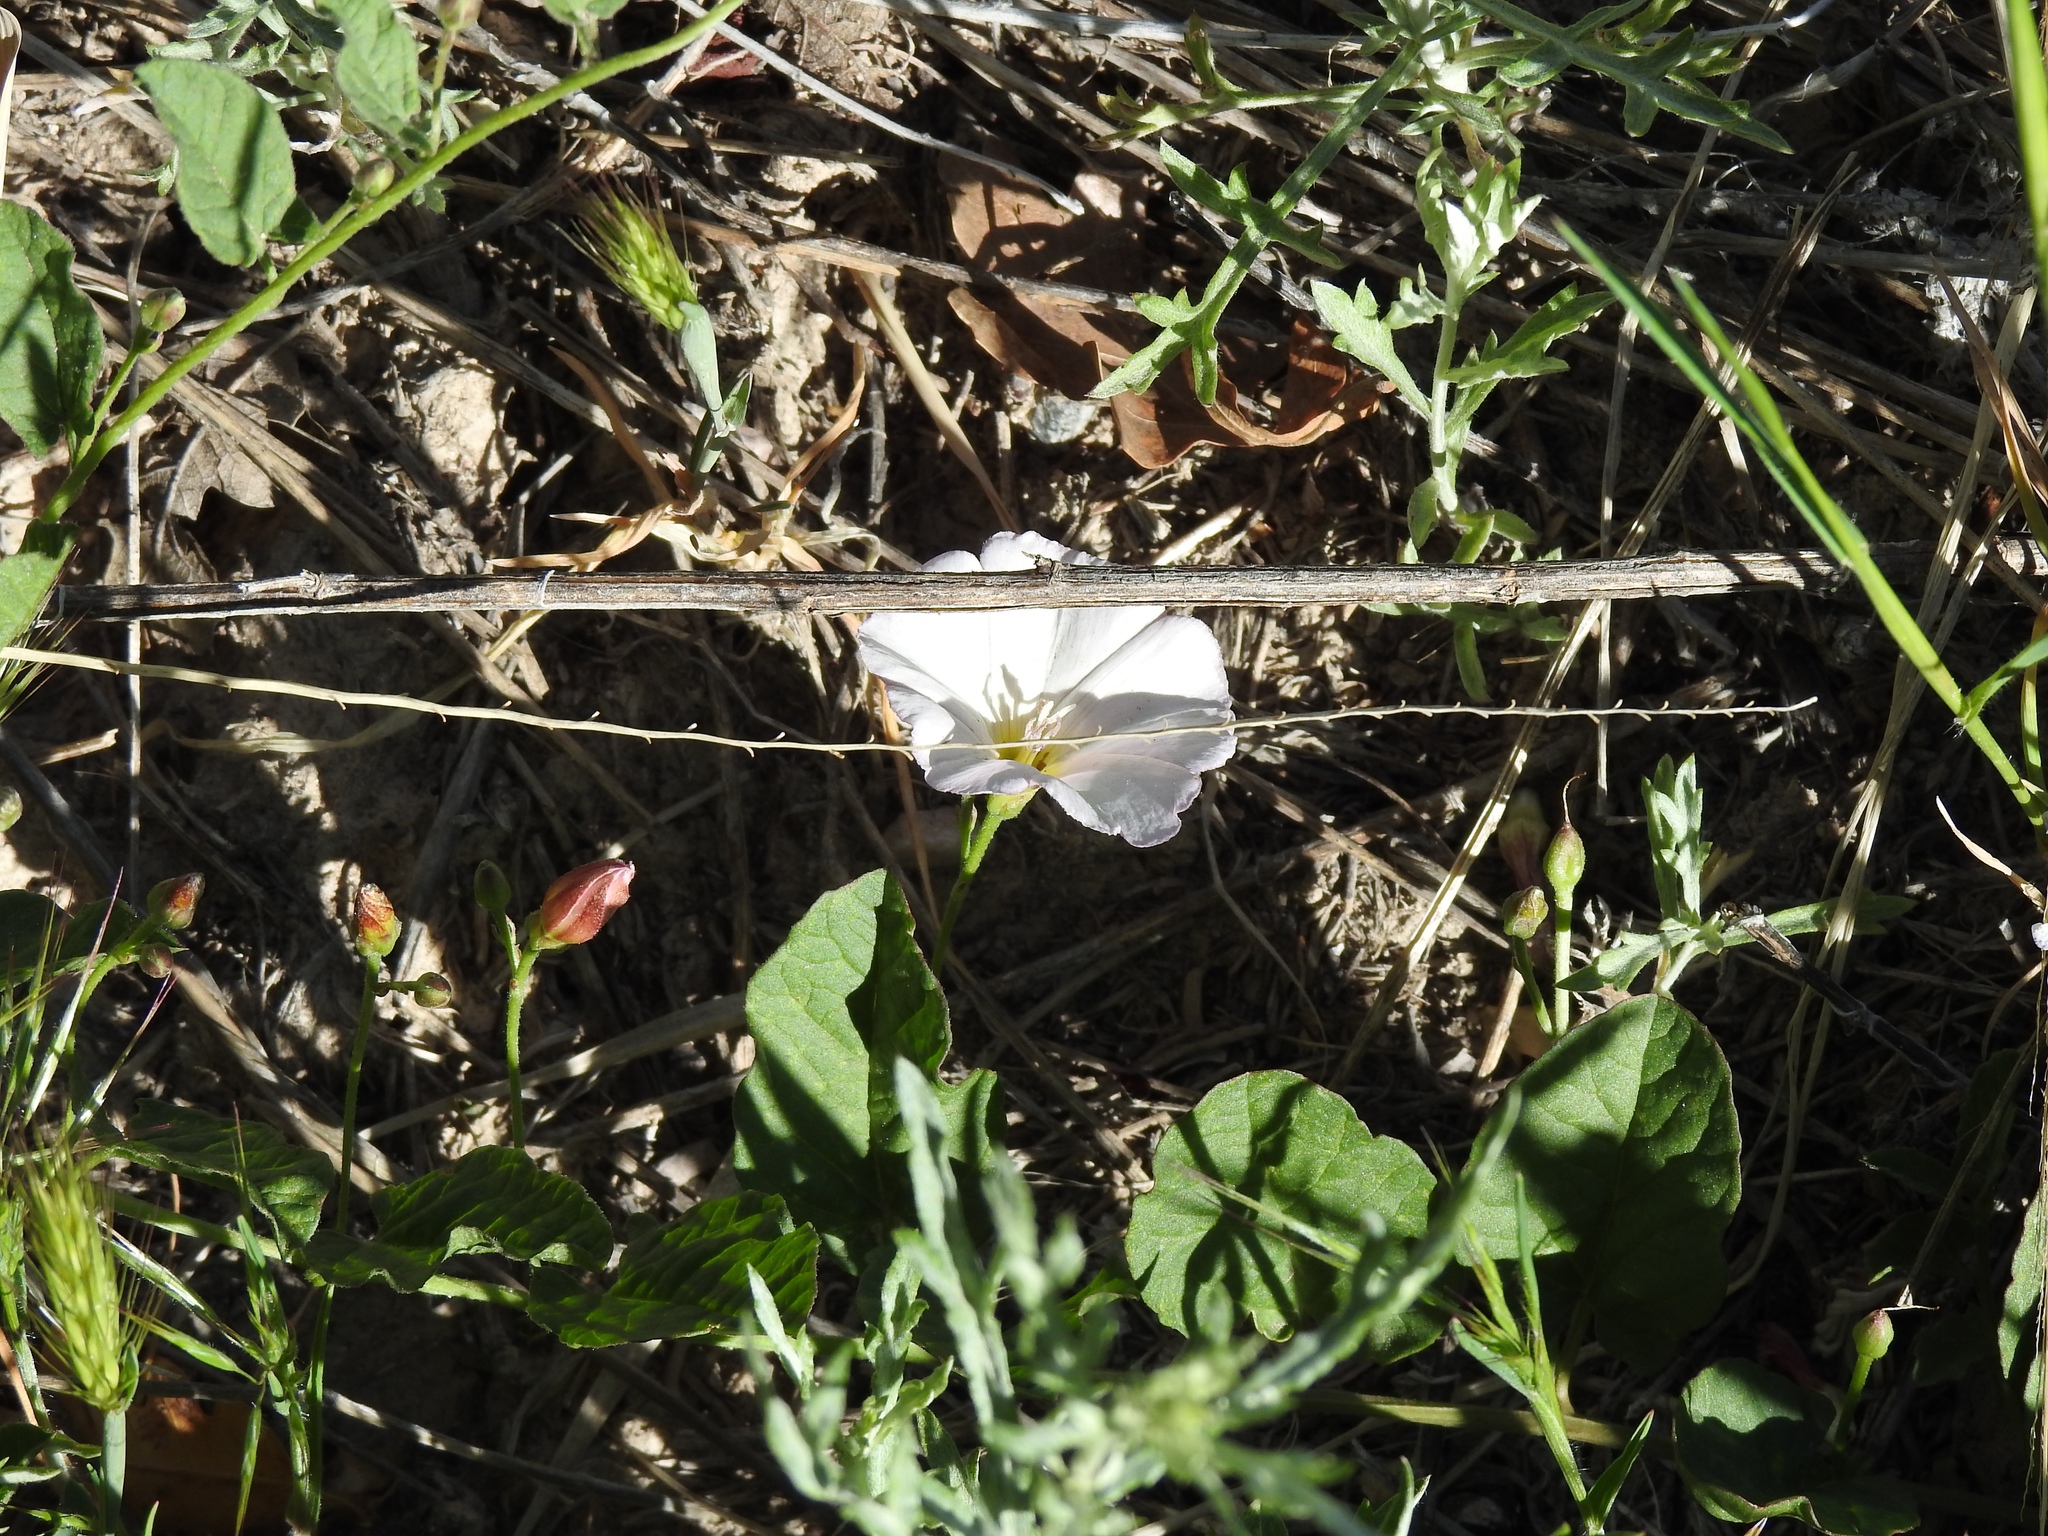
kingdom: Plantae
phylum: Tracheophyta
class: Magnoliopsida
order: Solanales
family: Convolvulaceae
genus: Convolvulus
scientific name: Convolvulus arvensis
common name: Field bindweed
